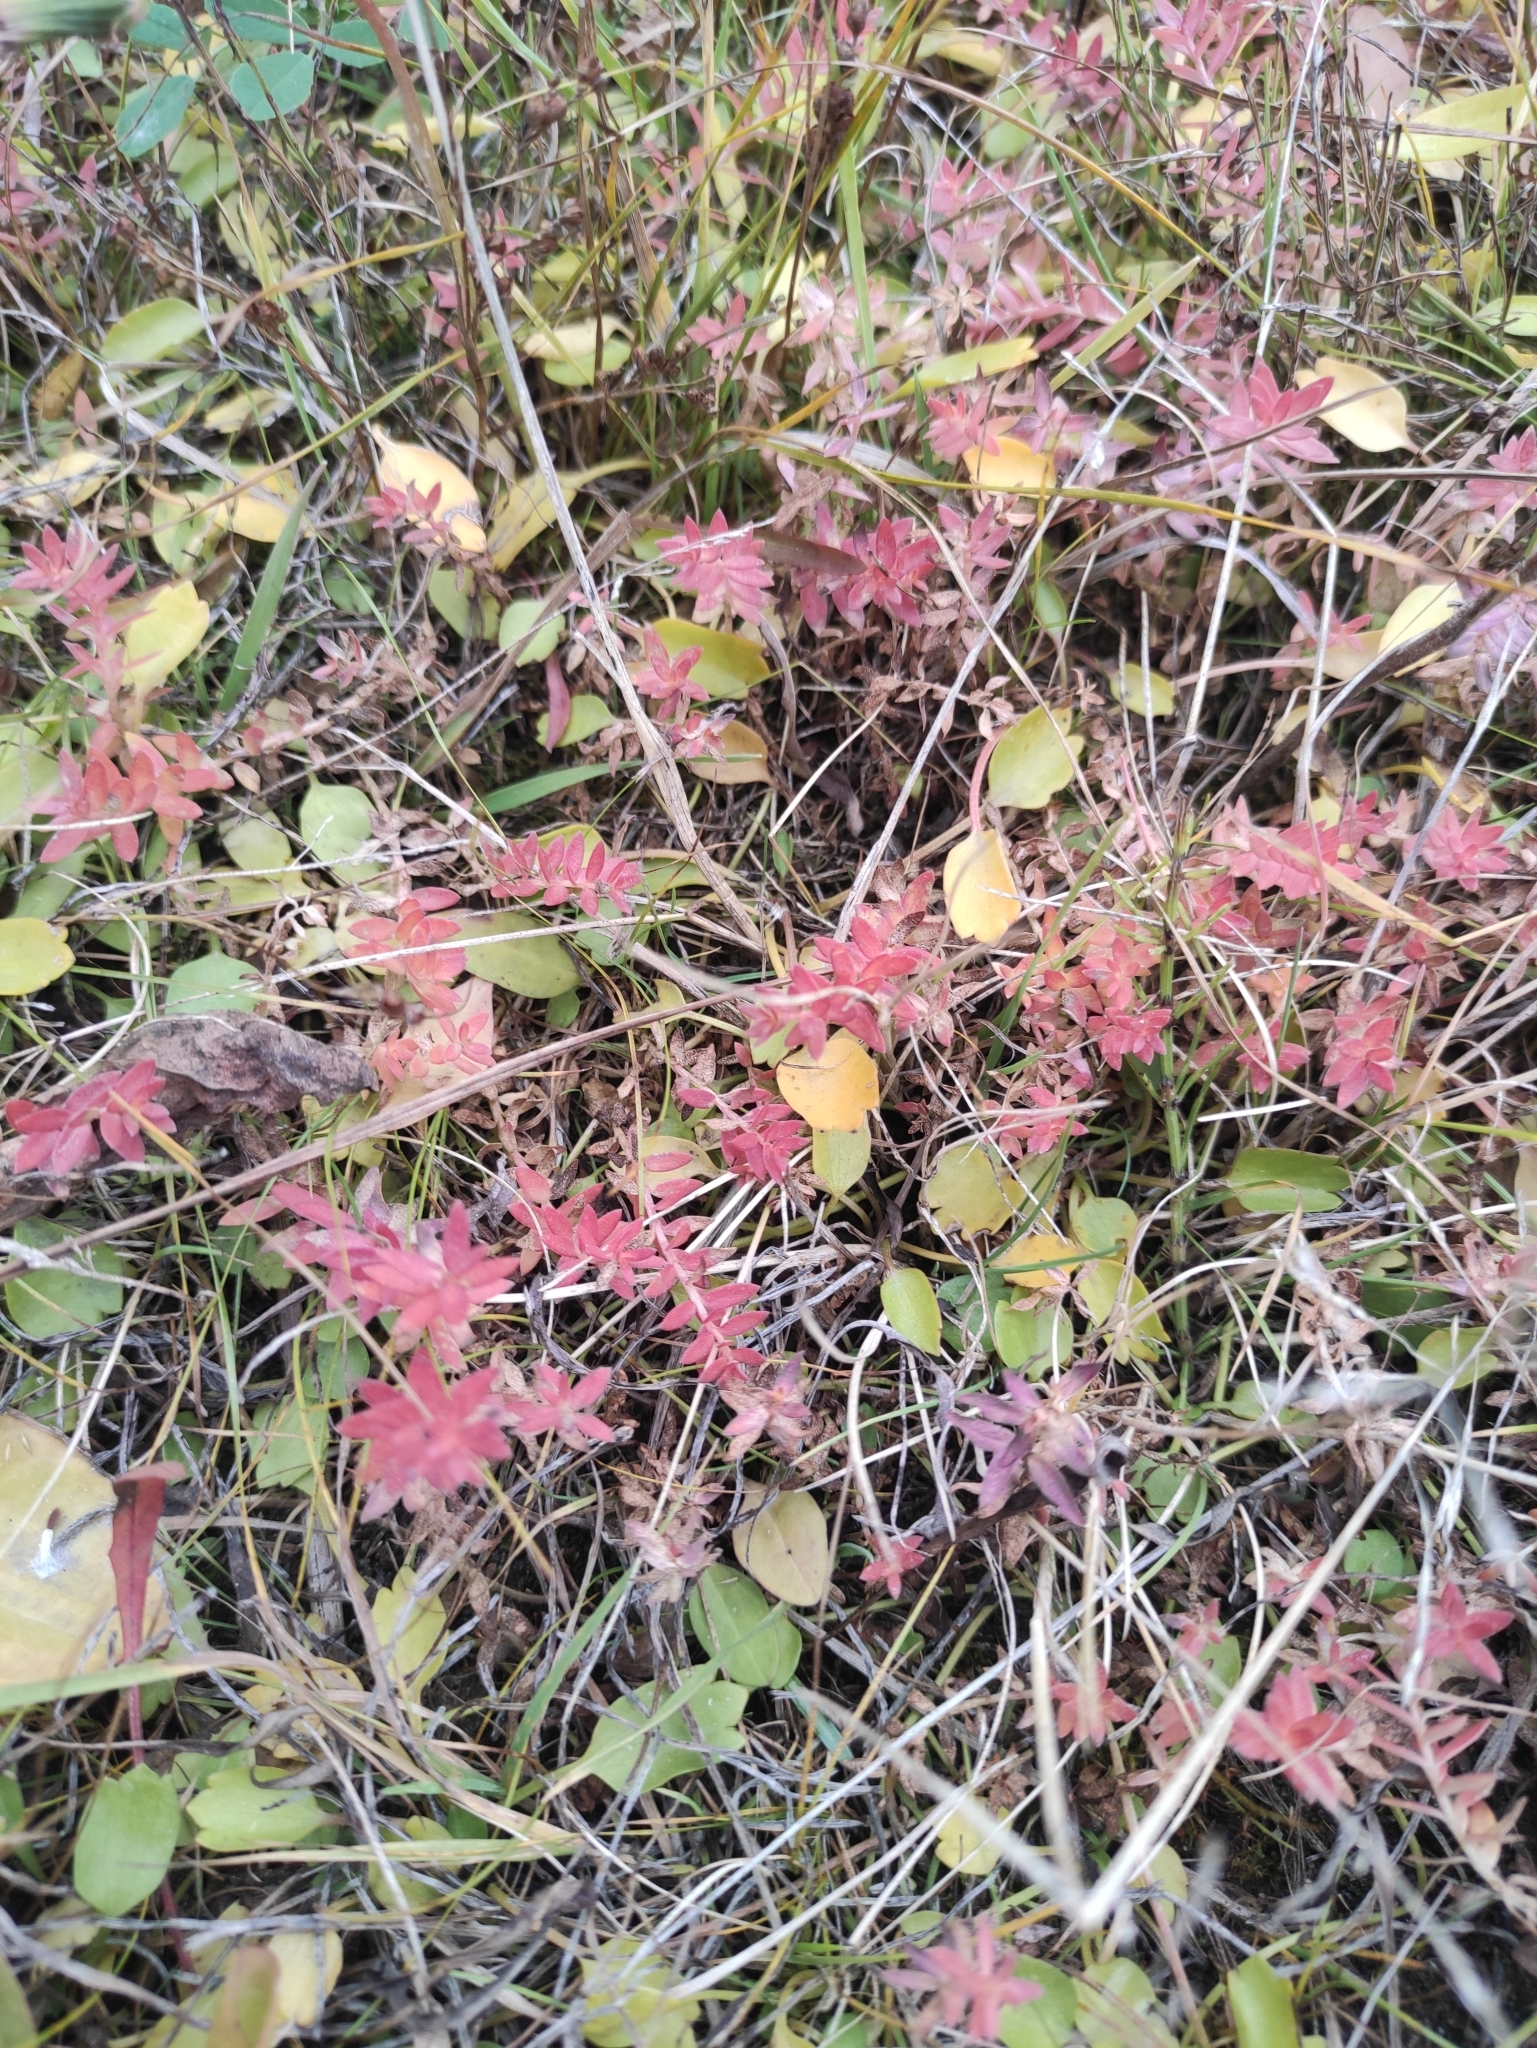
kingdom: Plantae
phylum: Tracheophyta
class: Magnoliopsida
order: Ericales
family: Primulaceae
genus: Lysimachia
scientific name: Lysimachia maritima
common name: Sea milkwort
